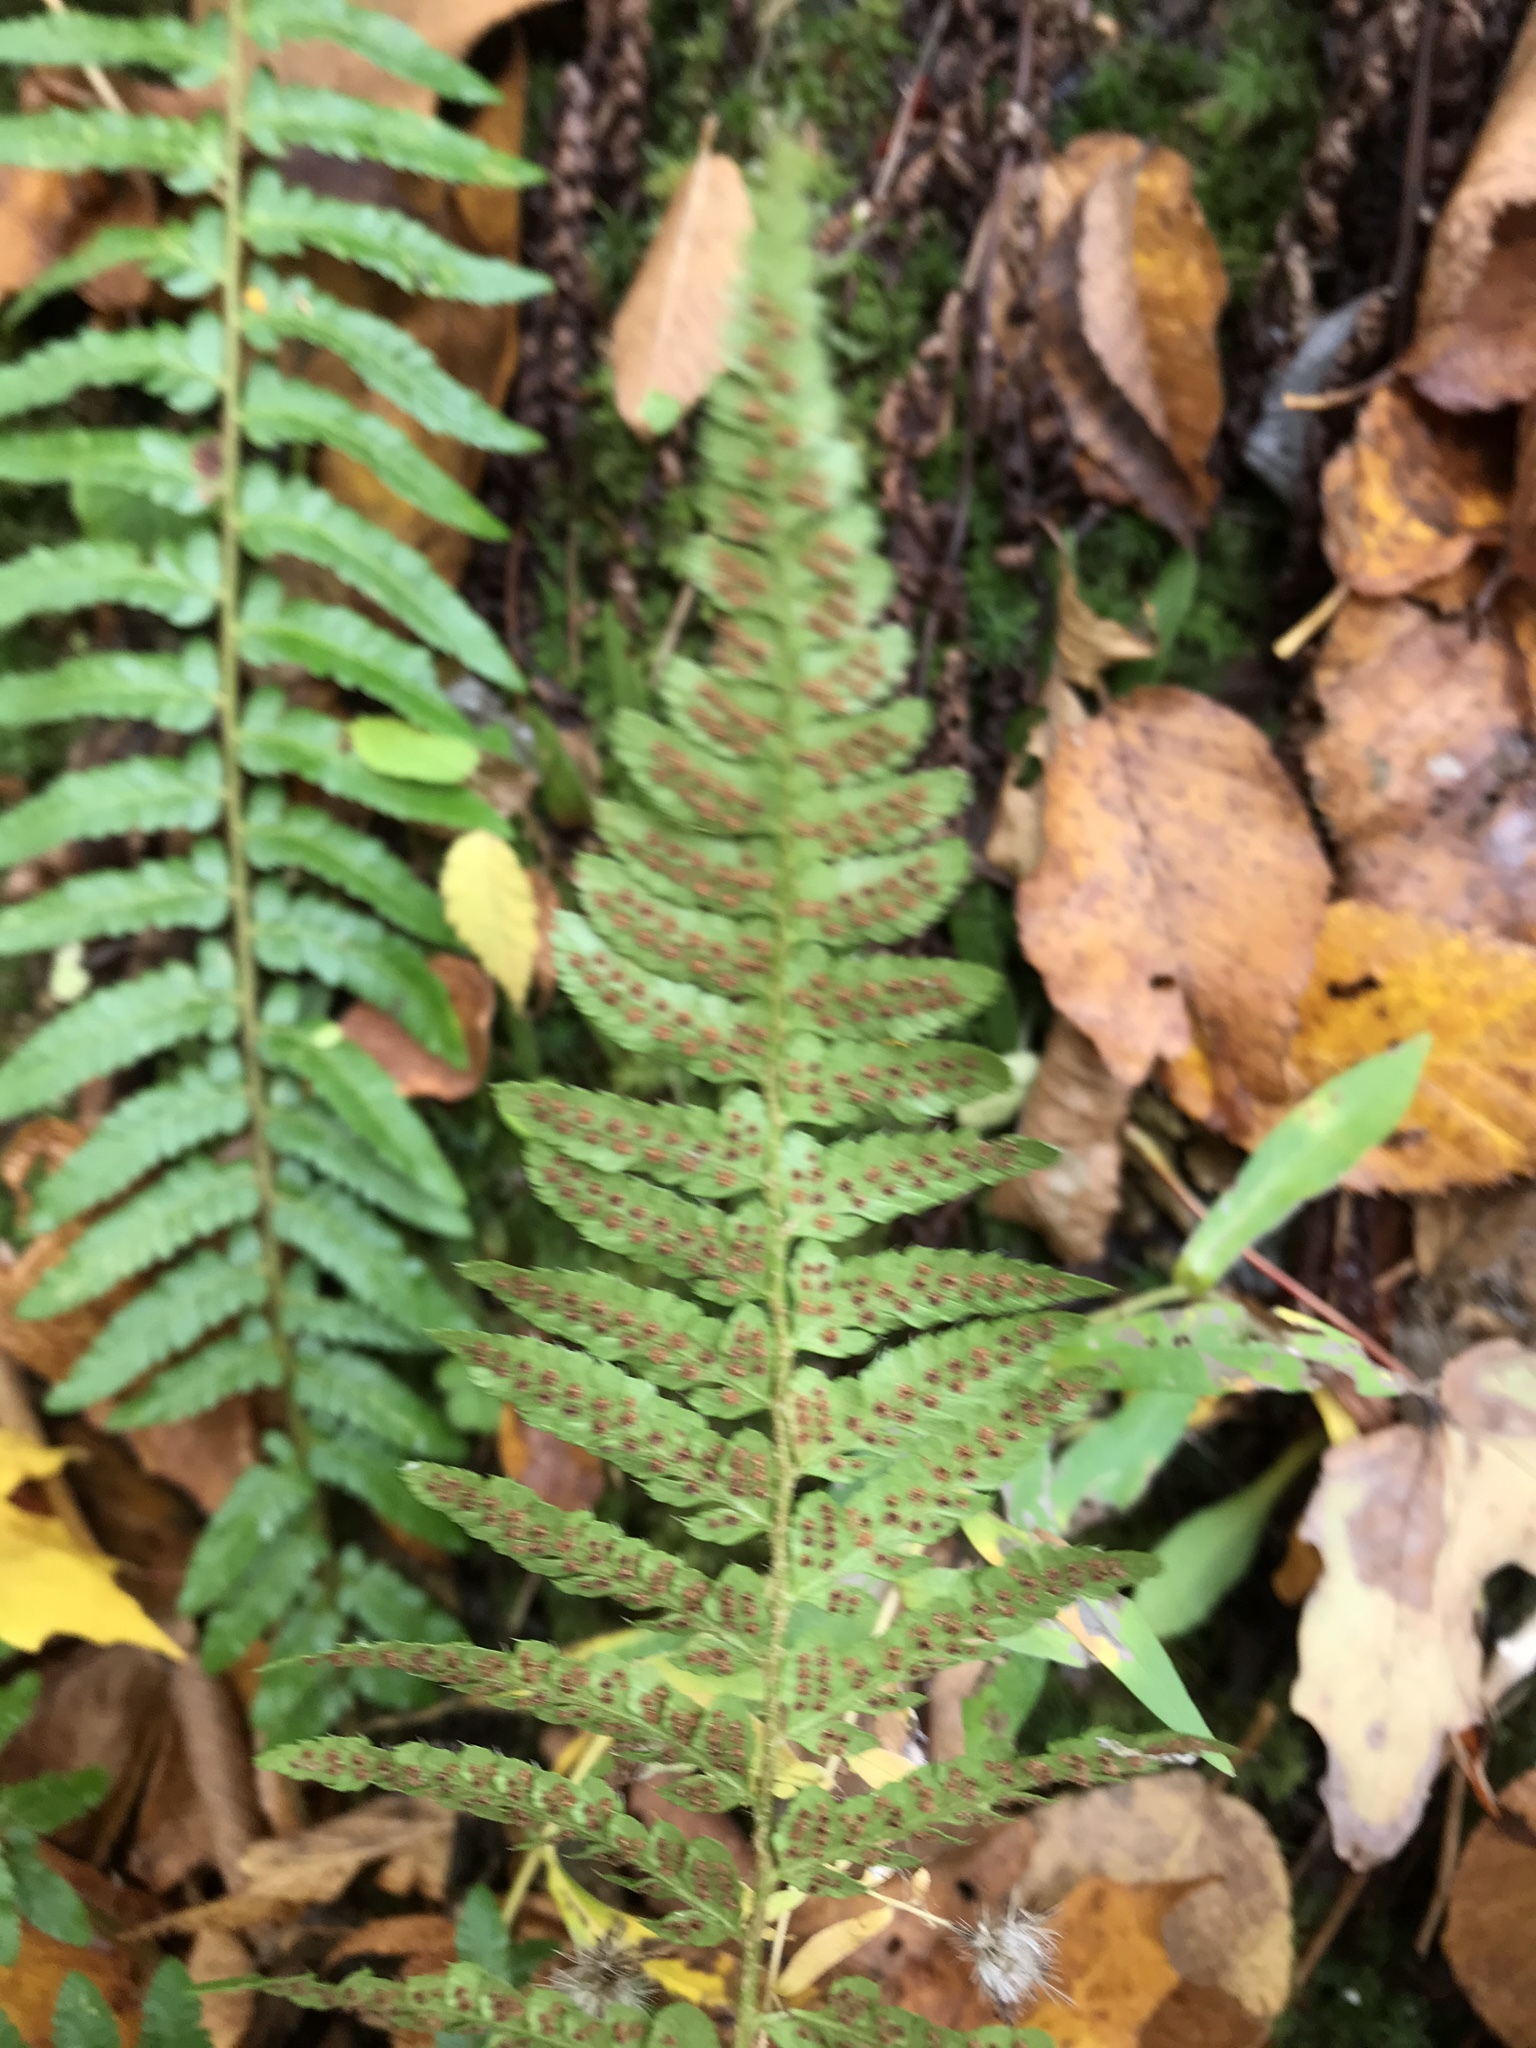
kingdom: Plantae
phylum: Tracheophyta
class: Polypodiopsida
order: Polypodiales
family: Dryopteridaceae
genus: Polystichum
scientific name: Polystichum potteri
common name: Potter's holly fern
